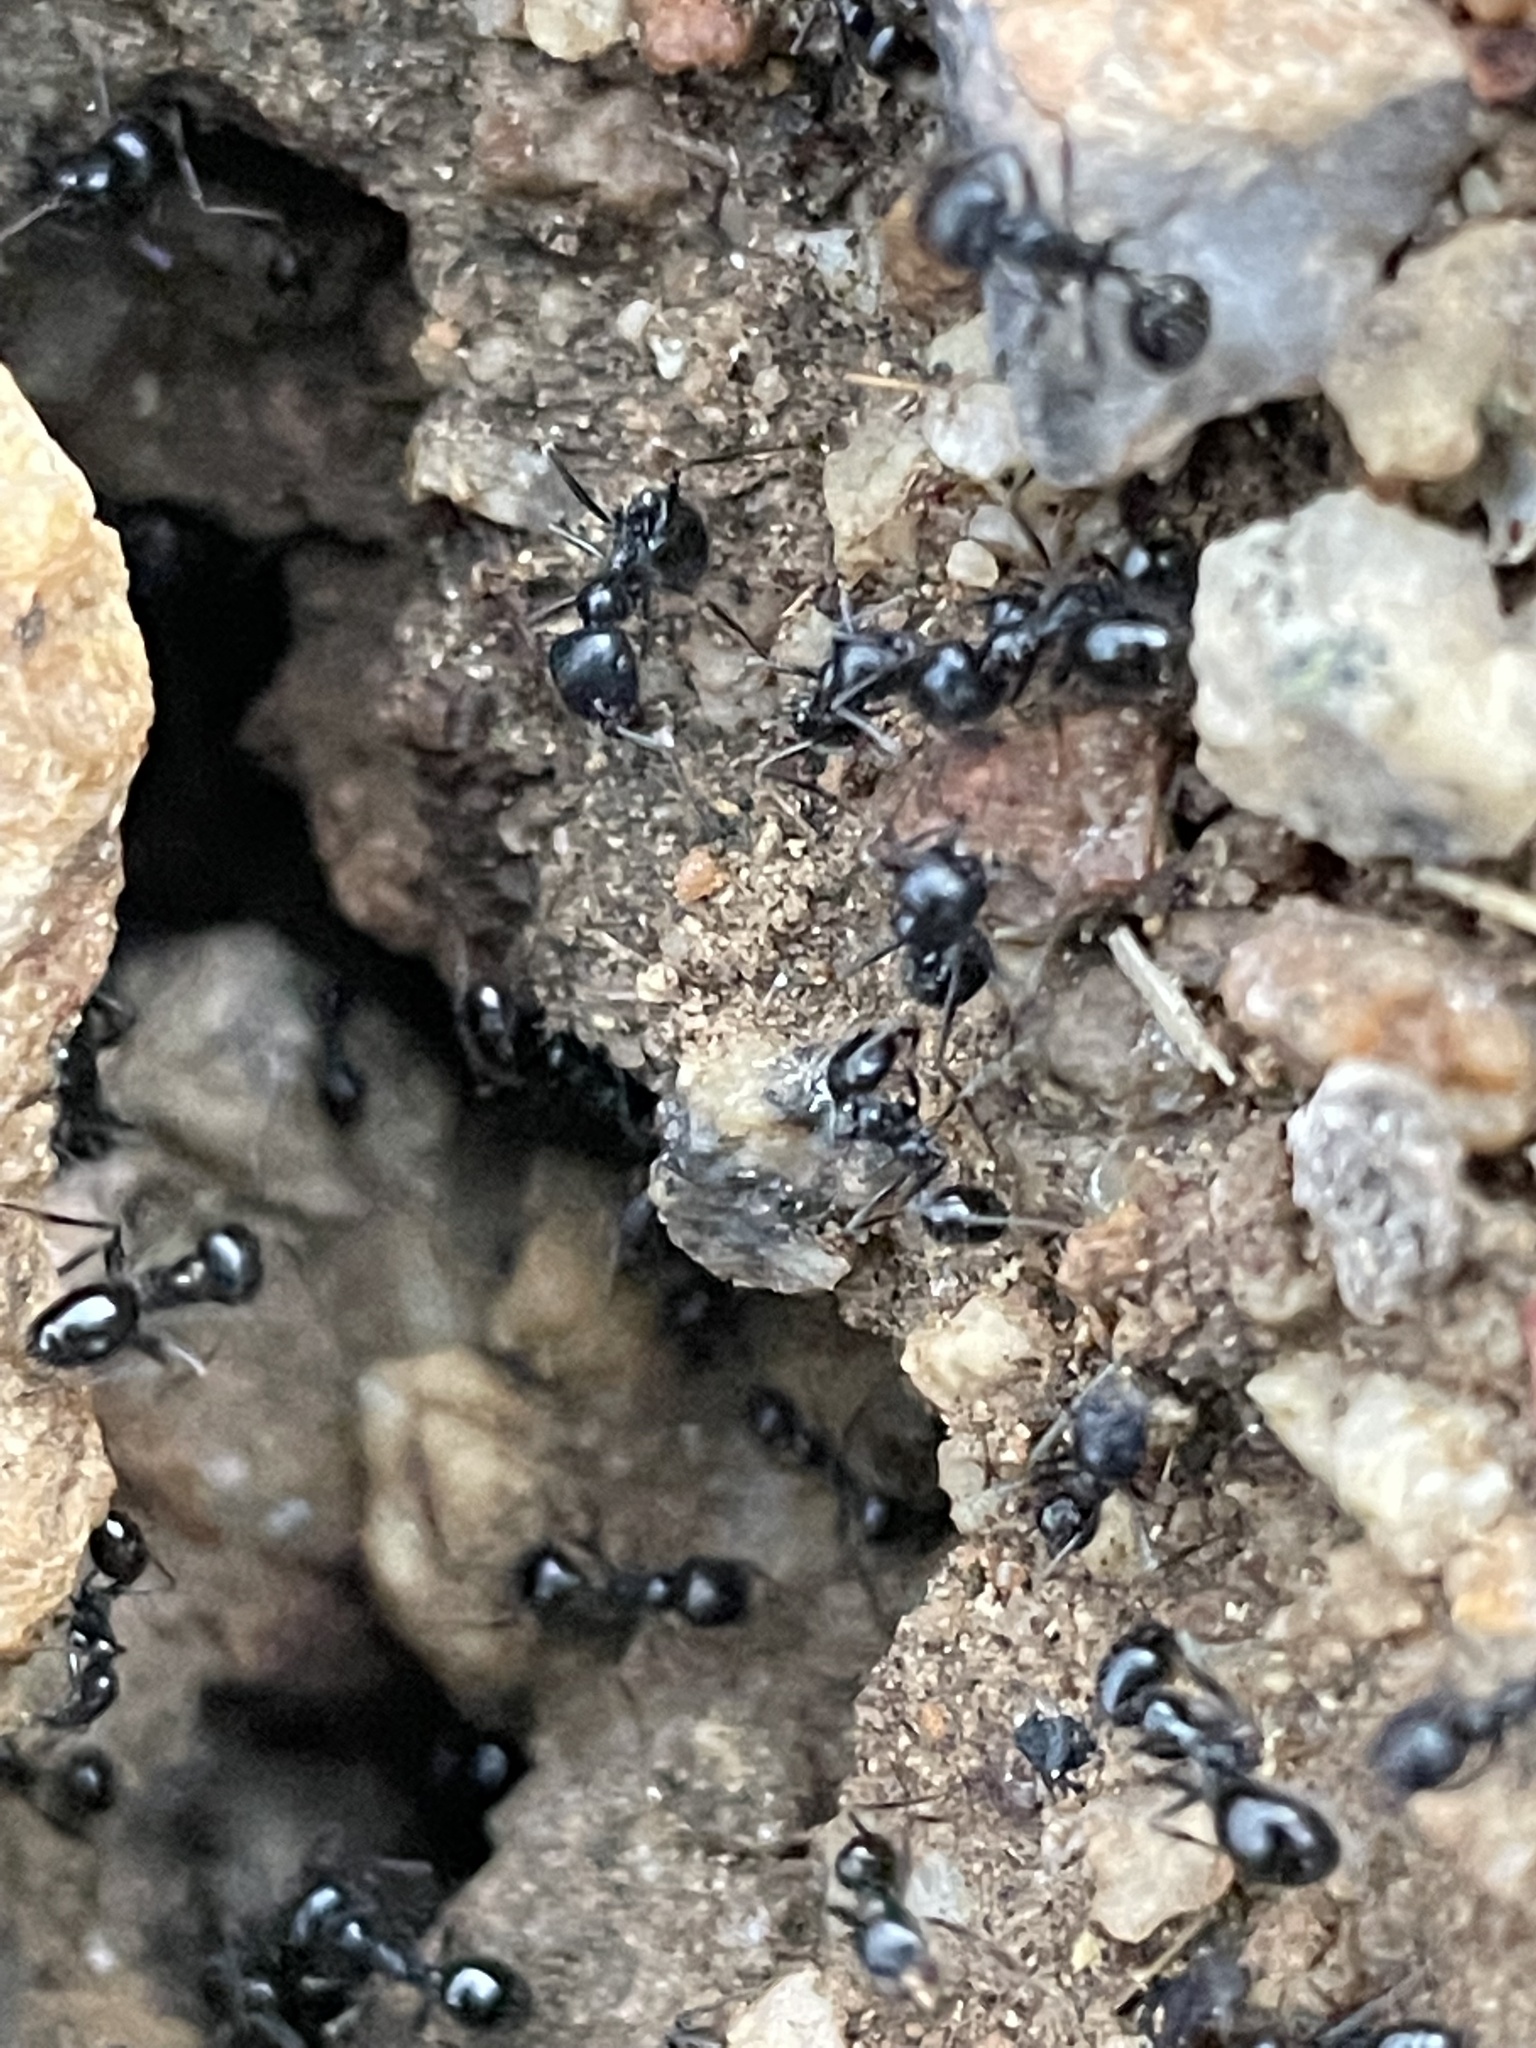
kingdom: Animalia
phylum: Arthropoda
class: Insecta
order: Hymenoptera
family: Formicidae
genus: Messor
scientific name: Messor pergandei
